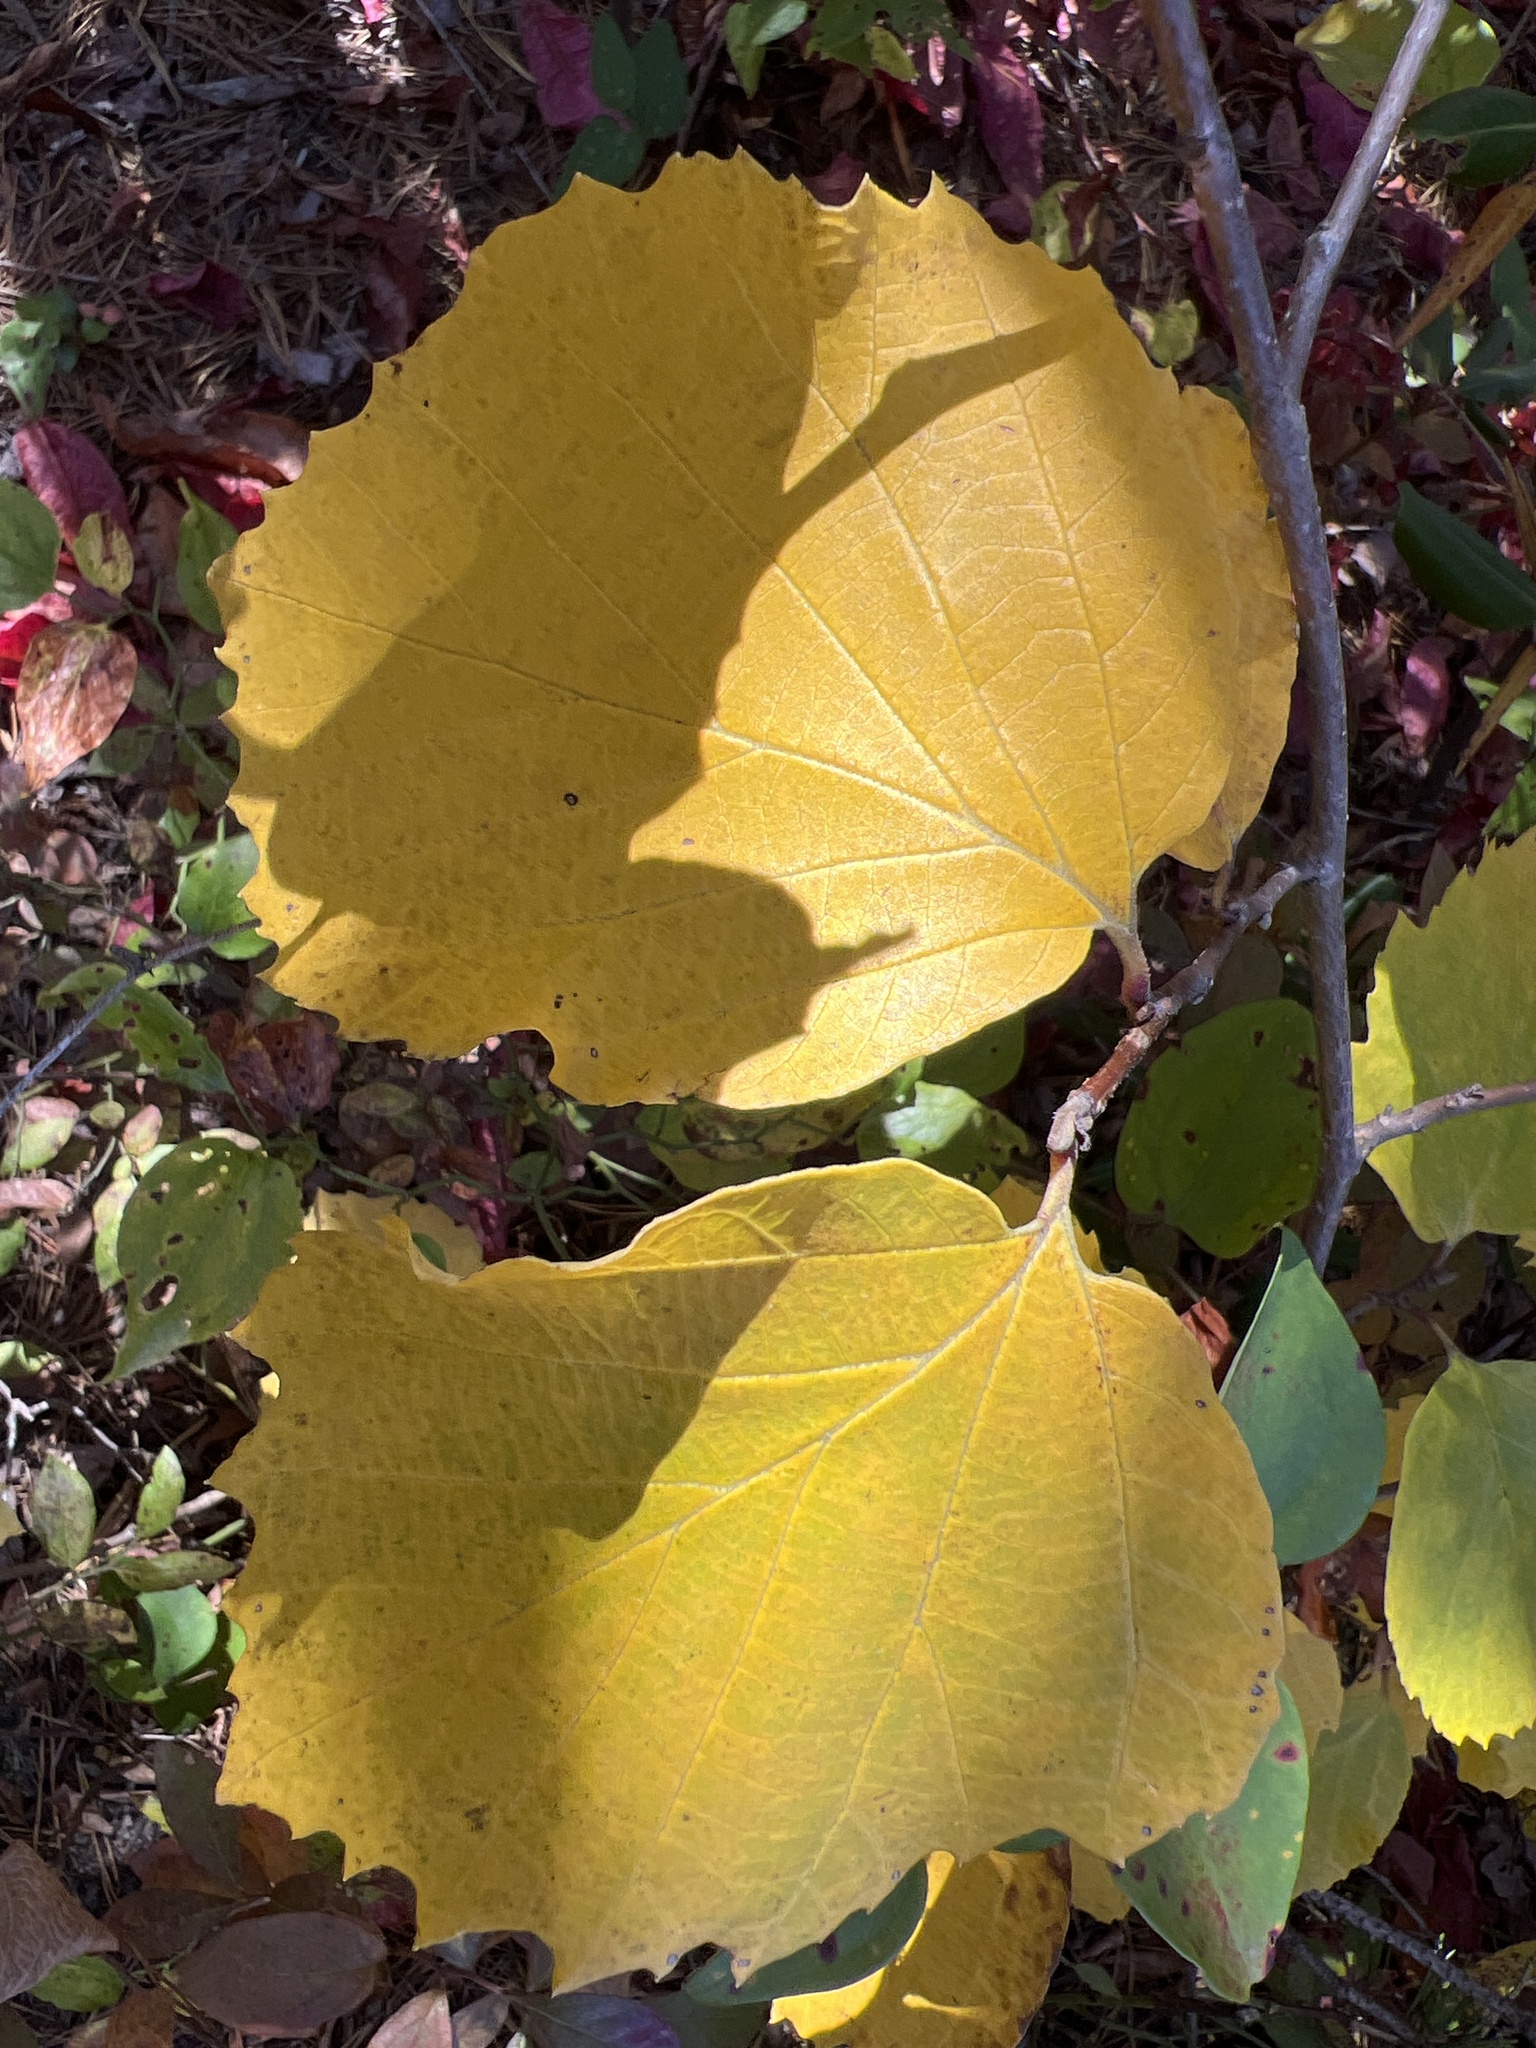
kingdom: Plantae
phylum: Tracheophyta
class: Magnoliopsida
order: Saxifragales
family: Hamamelidaceae
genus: Fothergilla
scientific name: Fothergilla latifolia
